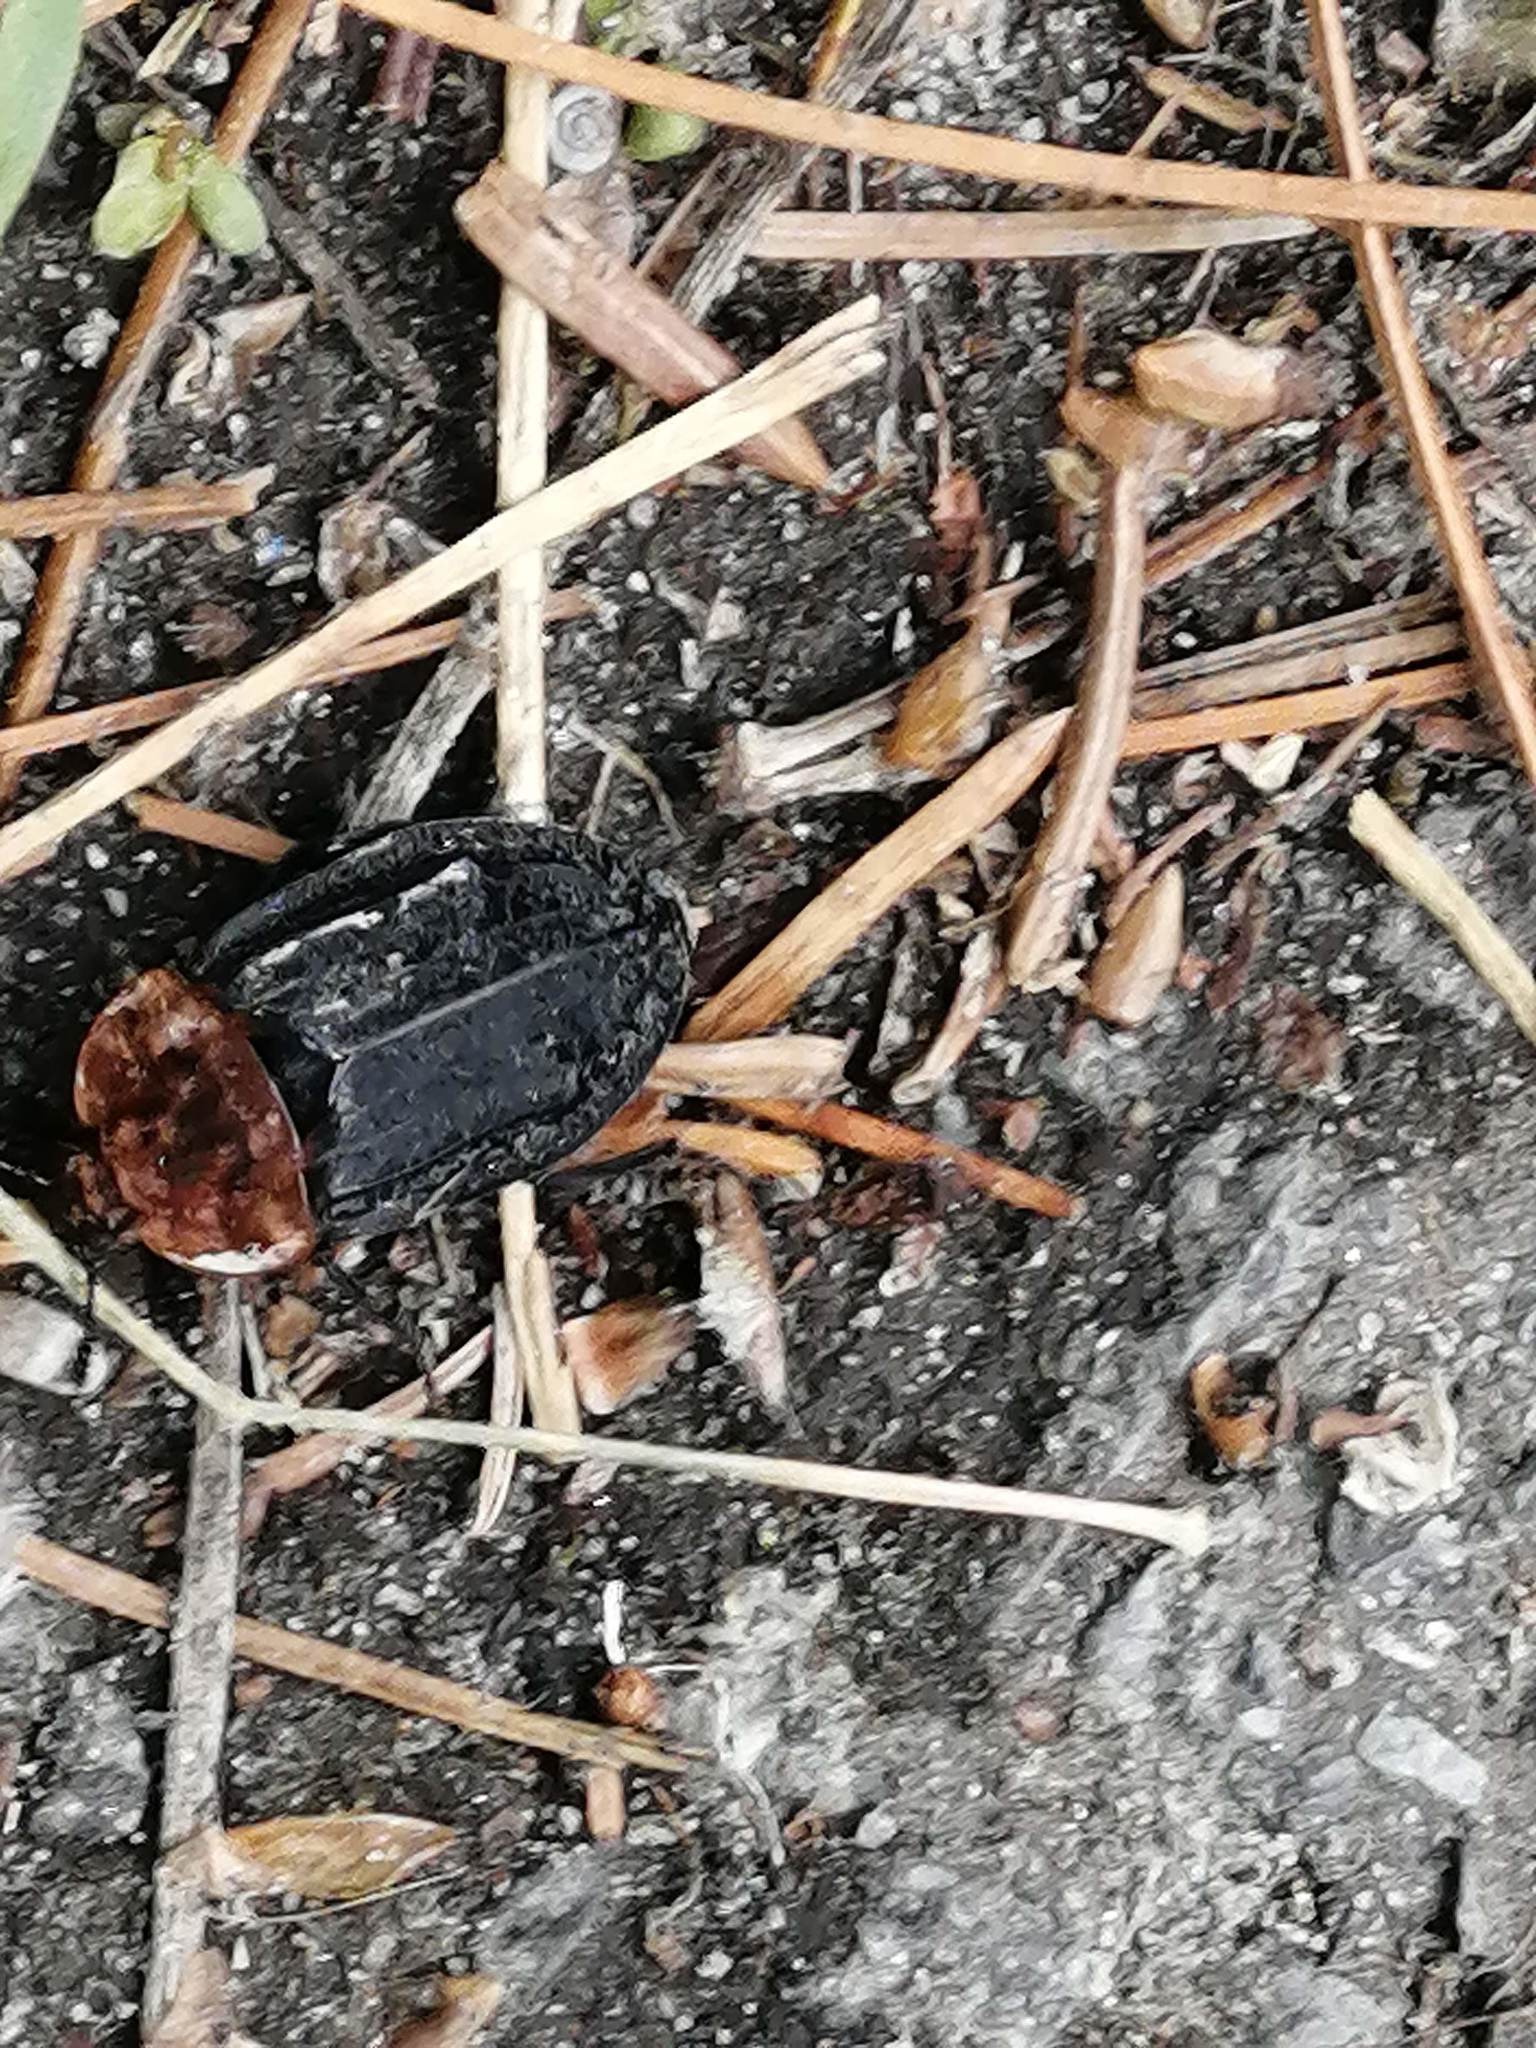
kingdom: Animalia
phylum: Arthropoda
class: Insecta
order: Coleoptera
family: Staphylinidae
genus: Oiceoptoma
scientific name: Oiceoptoma thoracicum
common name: Red-breasted carrion beetle
